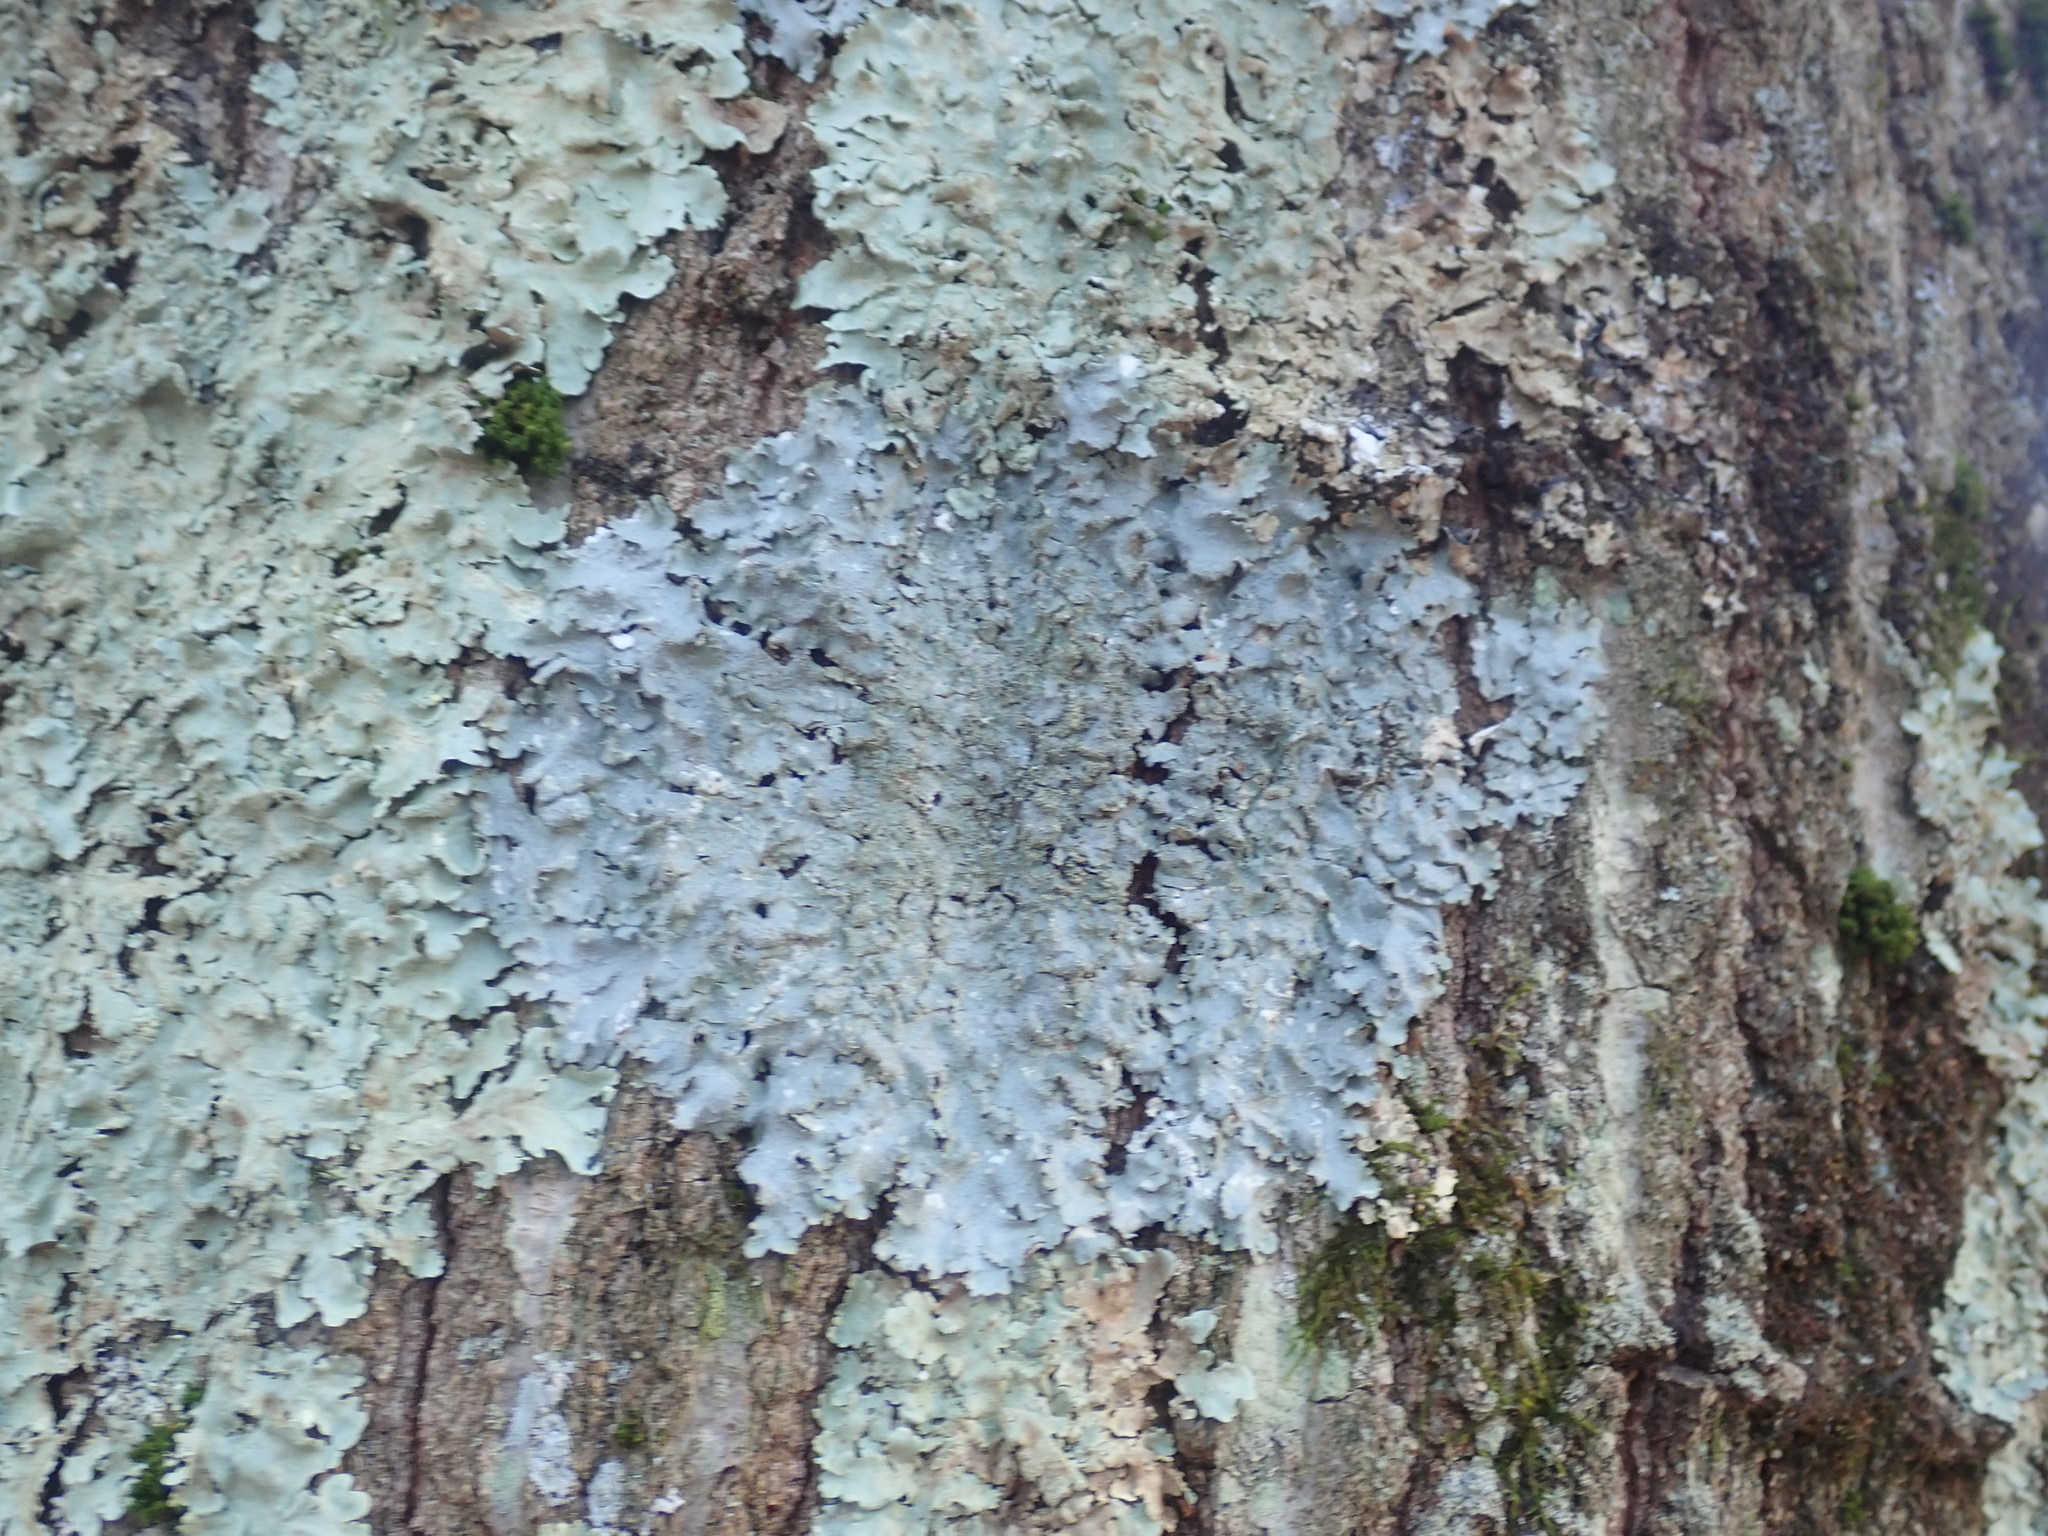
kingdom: Fungi
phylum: Ascomycota
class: Lecanoromycetes
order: Lecanorales
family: Parmeliaceae
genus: Punctelia
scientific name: Punctelia rudecta
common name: Rough speckled shield lichen
